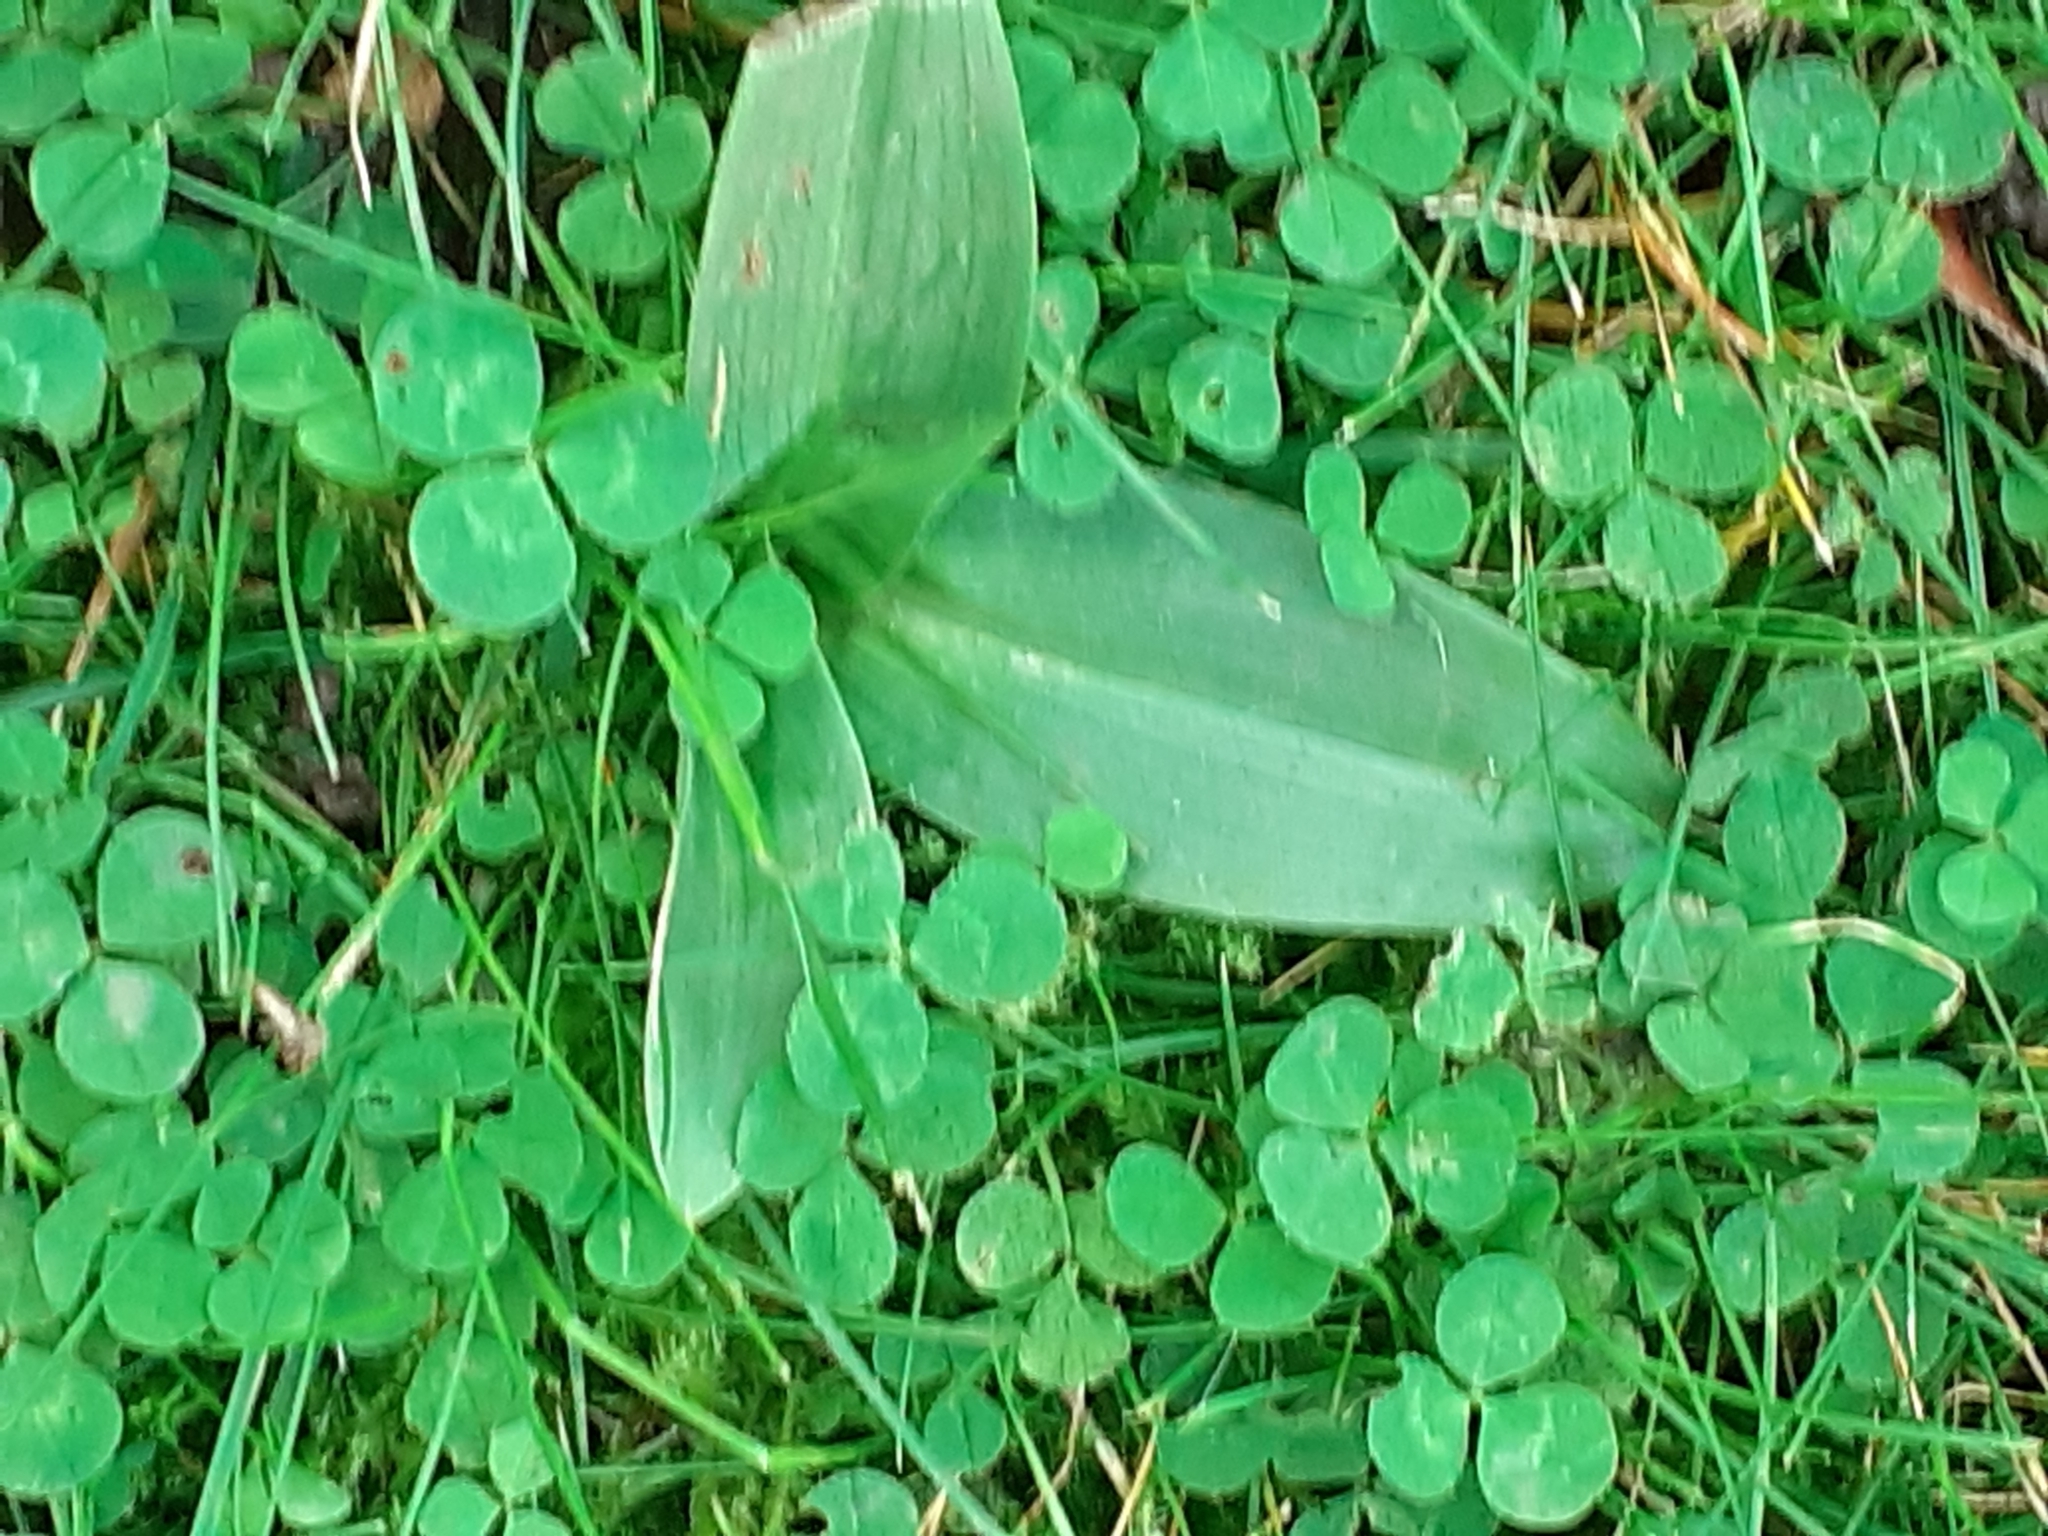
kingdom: Plantae
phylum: Tracheophyta
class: Liliopsida
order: Asparagales
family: Orchidaceae
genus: Ophrys
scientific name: Ophrys apifera
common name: Bee orchid
